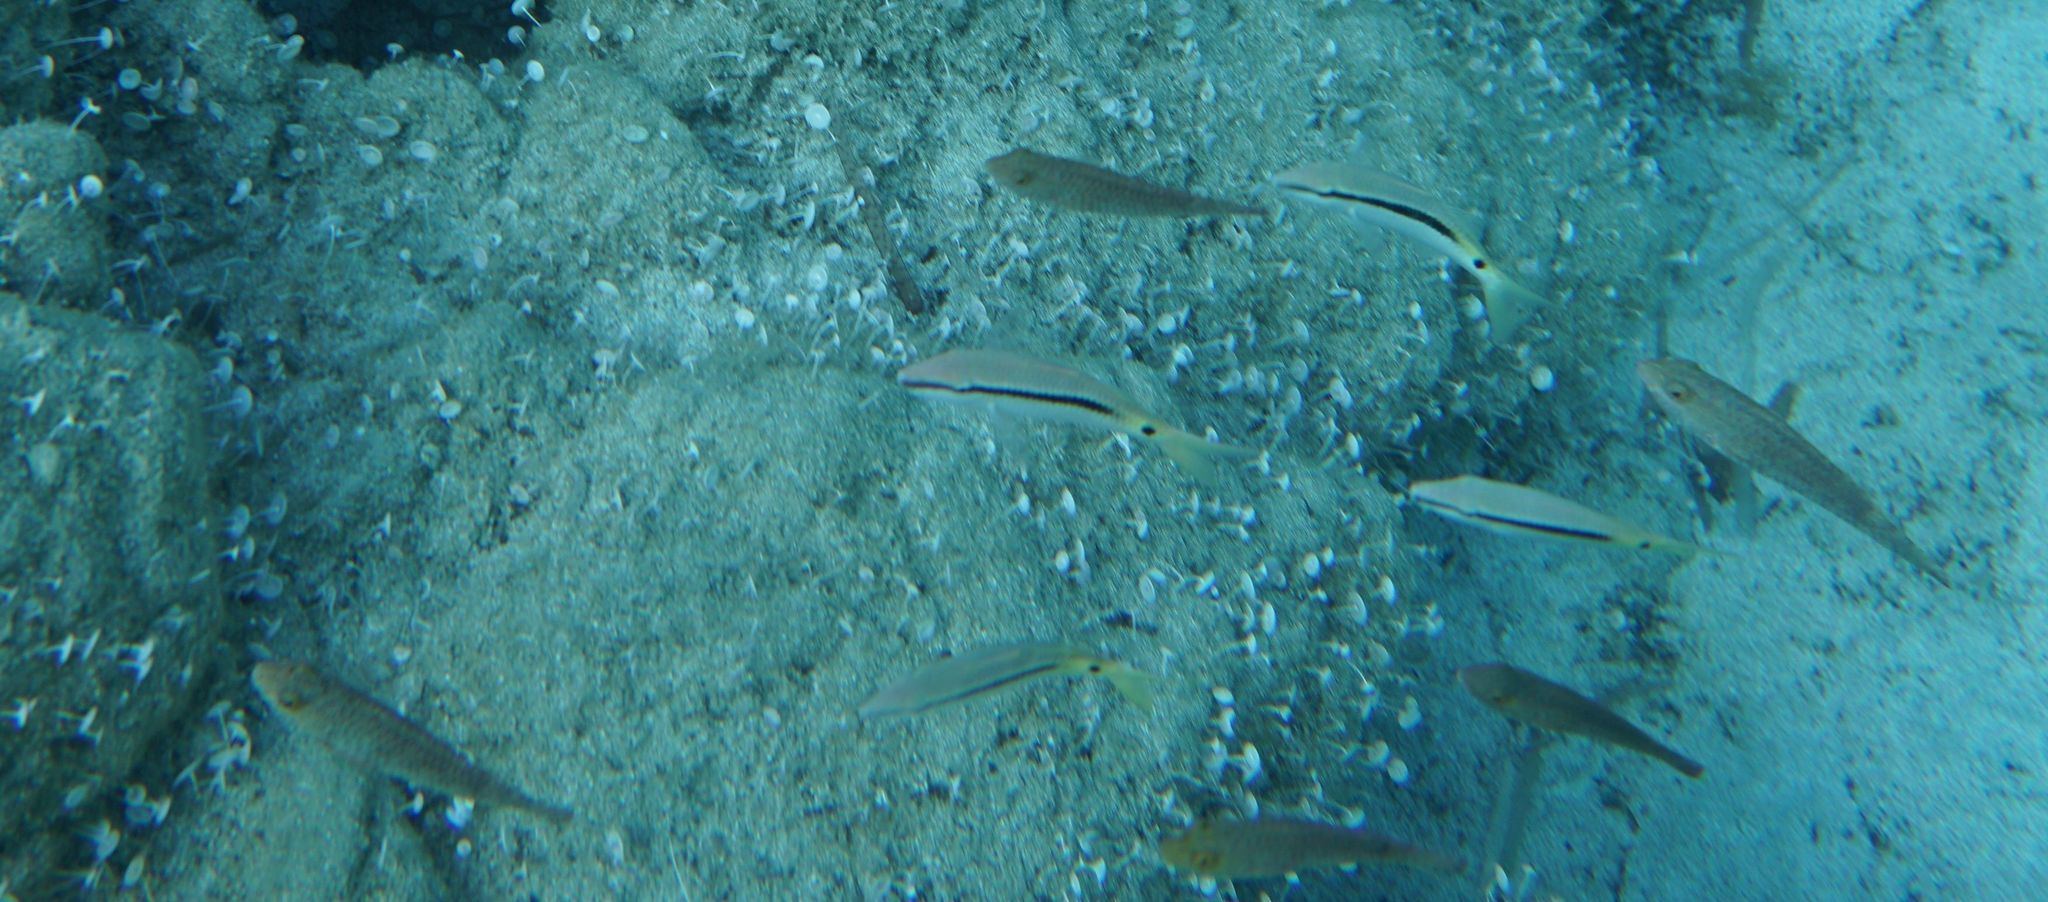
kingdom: Animalia
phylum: Chordata
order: Perciformes
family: Scaridae
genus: Sparisoma
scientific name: Sparisoma cretense
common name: Parrotfish
